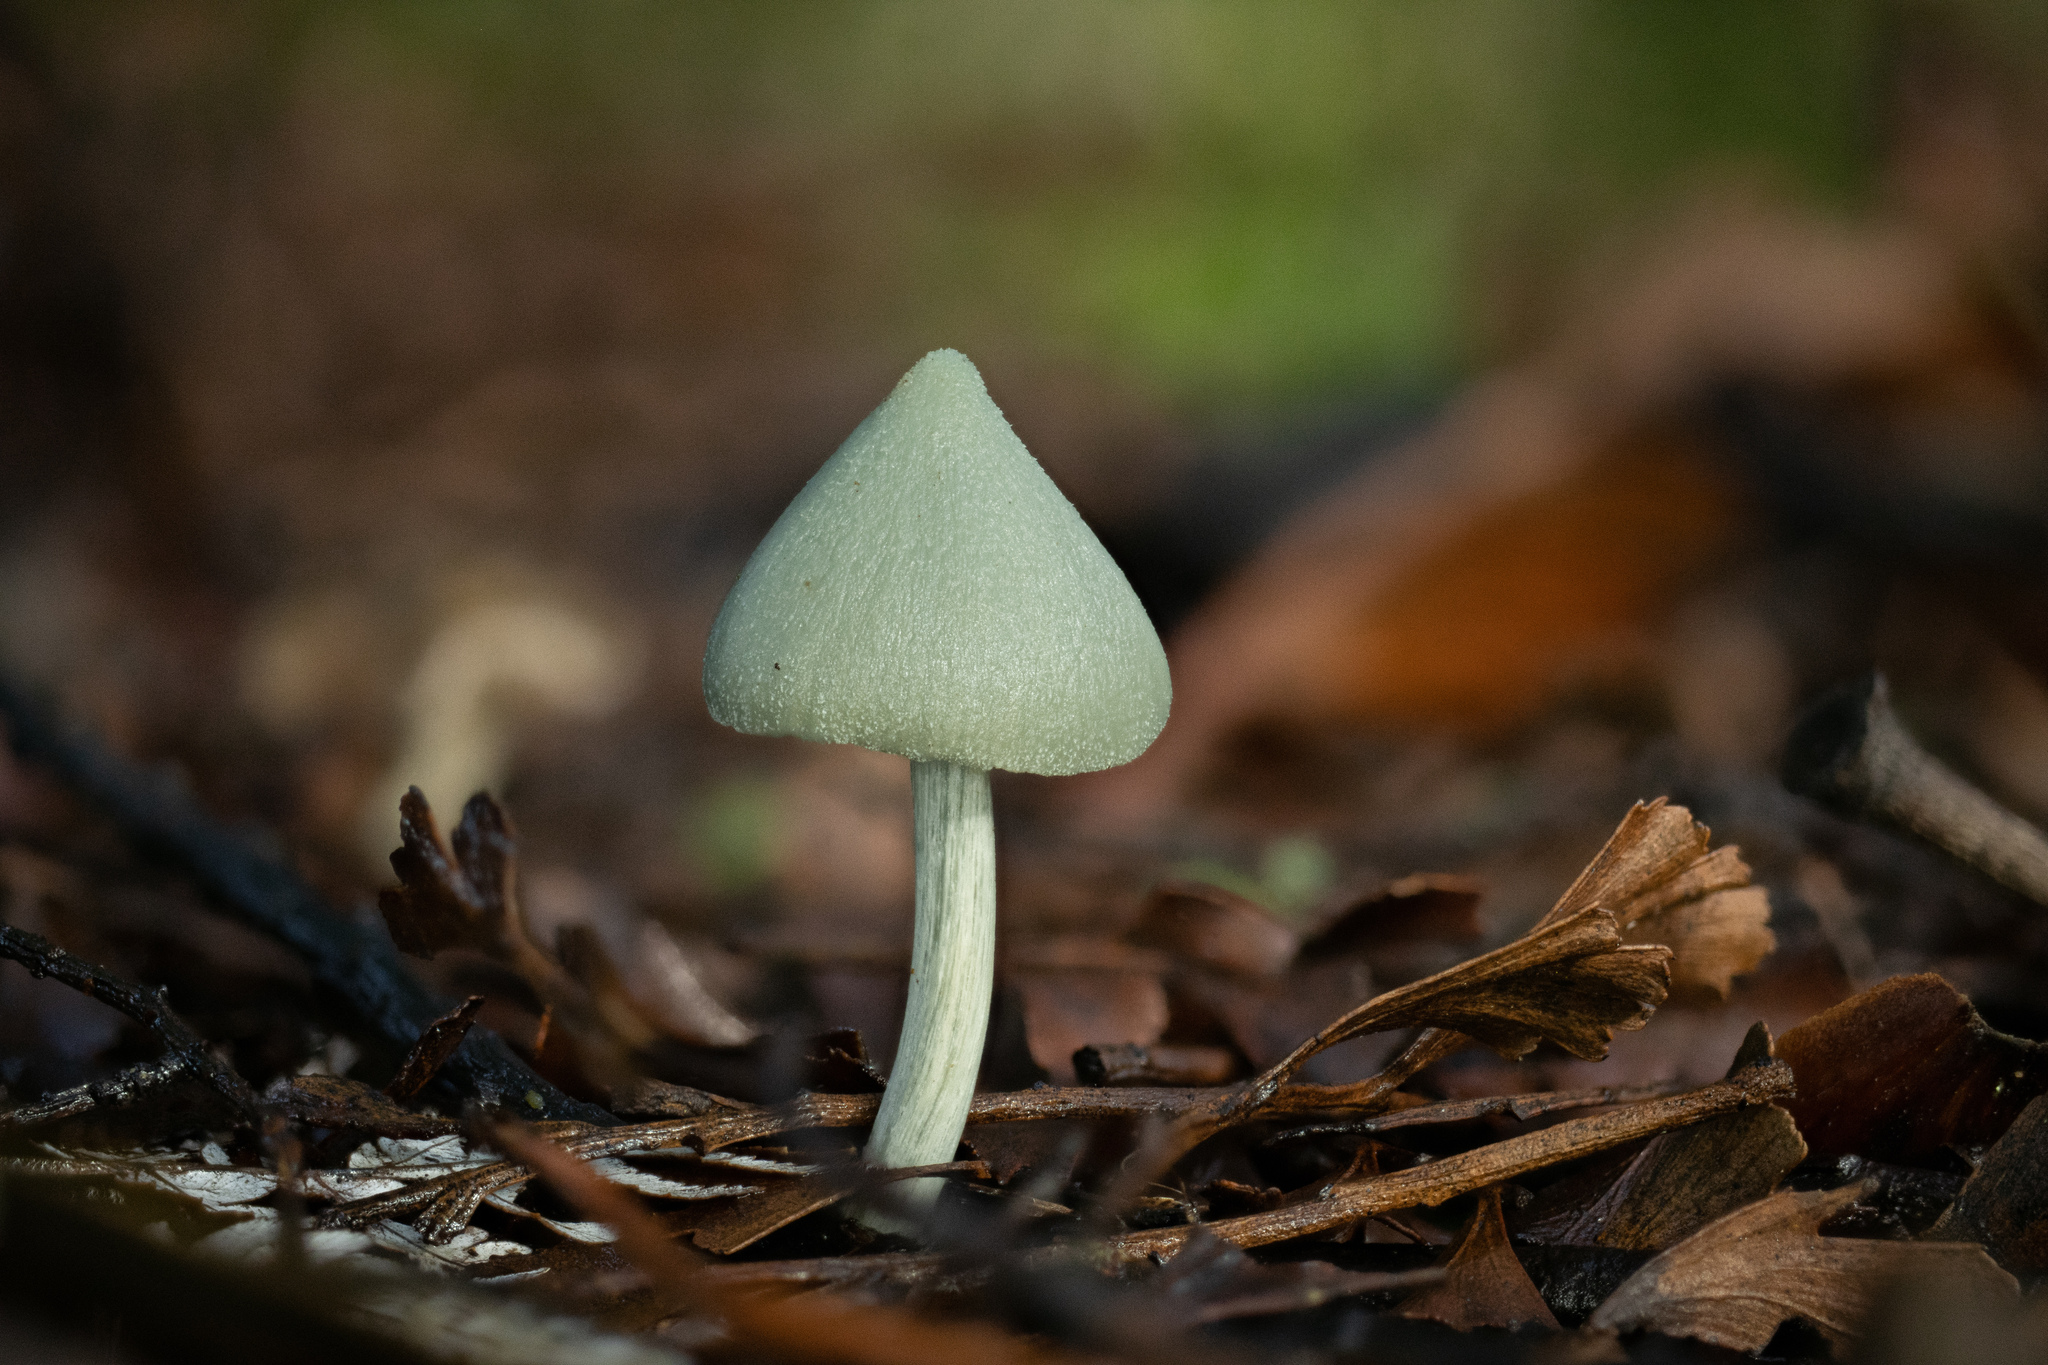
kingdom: Fungi
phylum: Basidiomycota
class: Agaricomycetes
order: Agaricales
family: Entolomataceae
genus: Entoloma
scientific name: Entoloma hochstetteri
